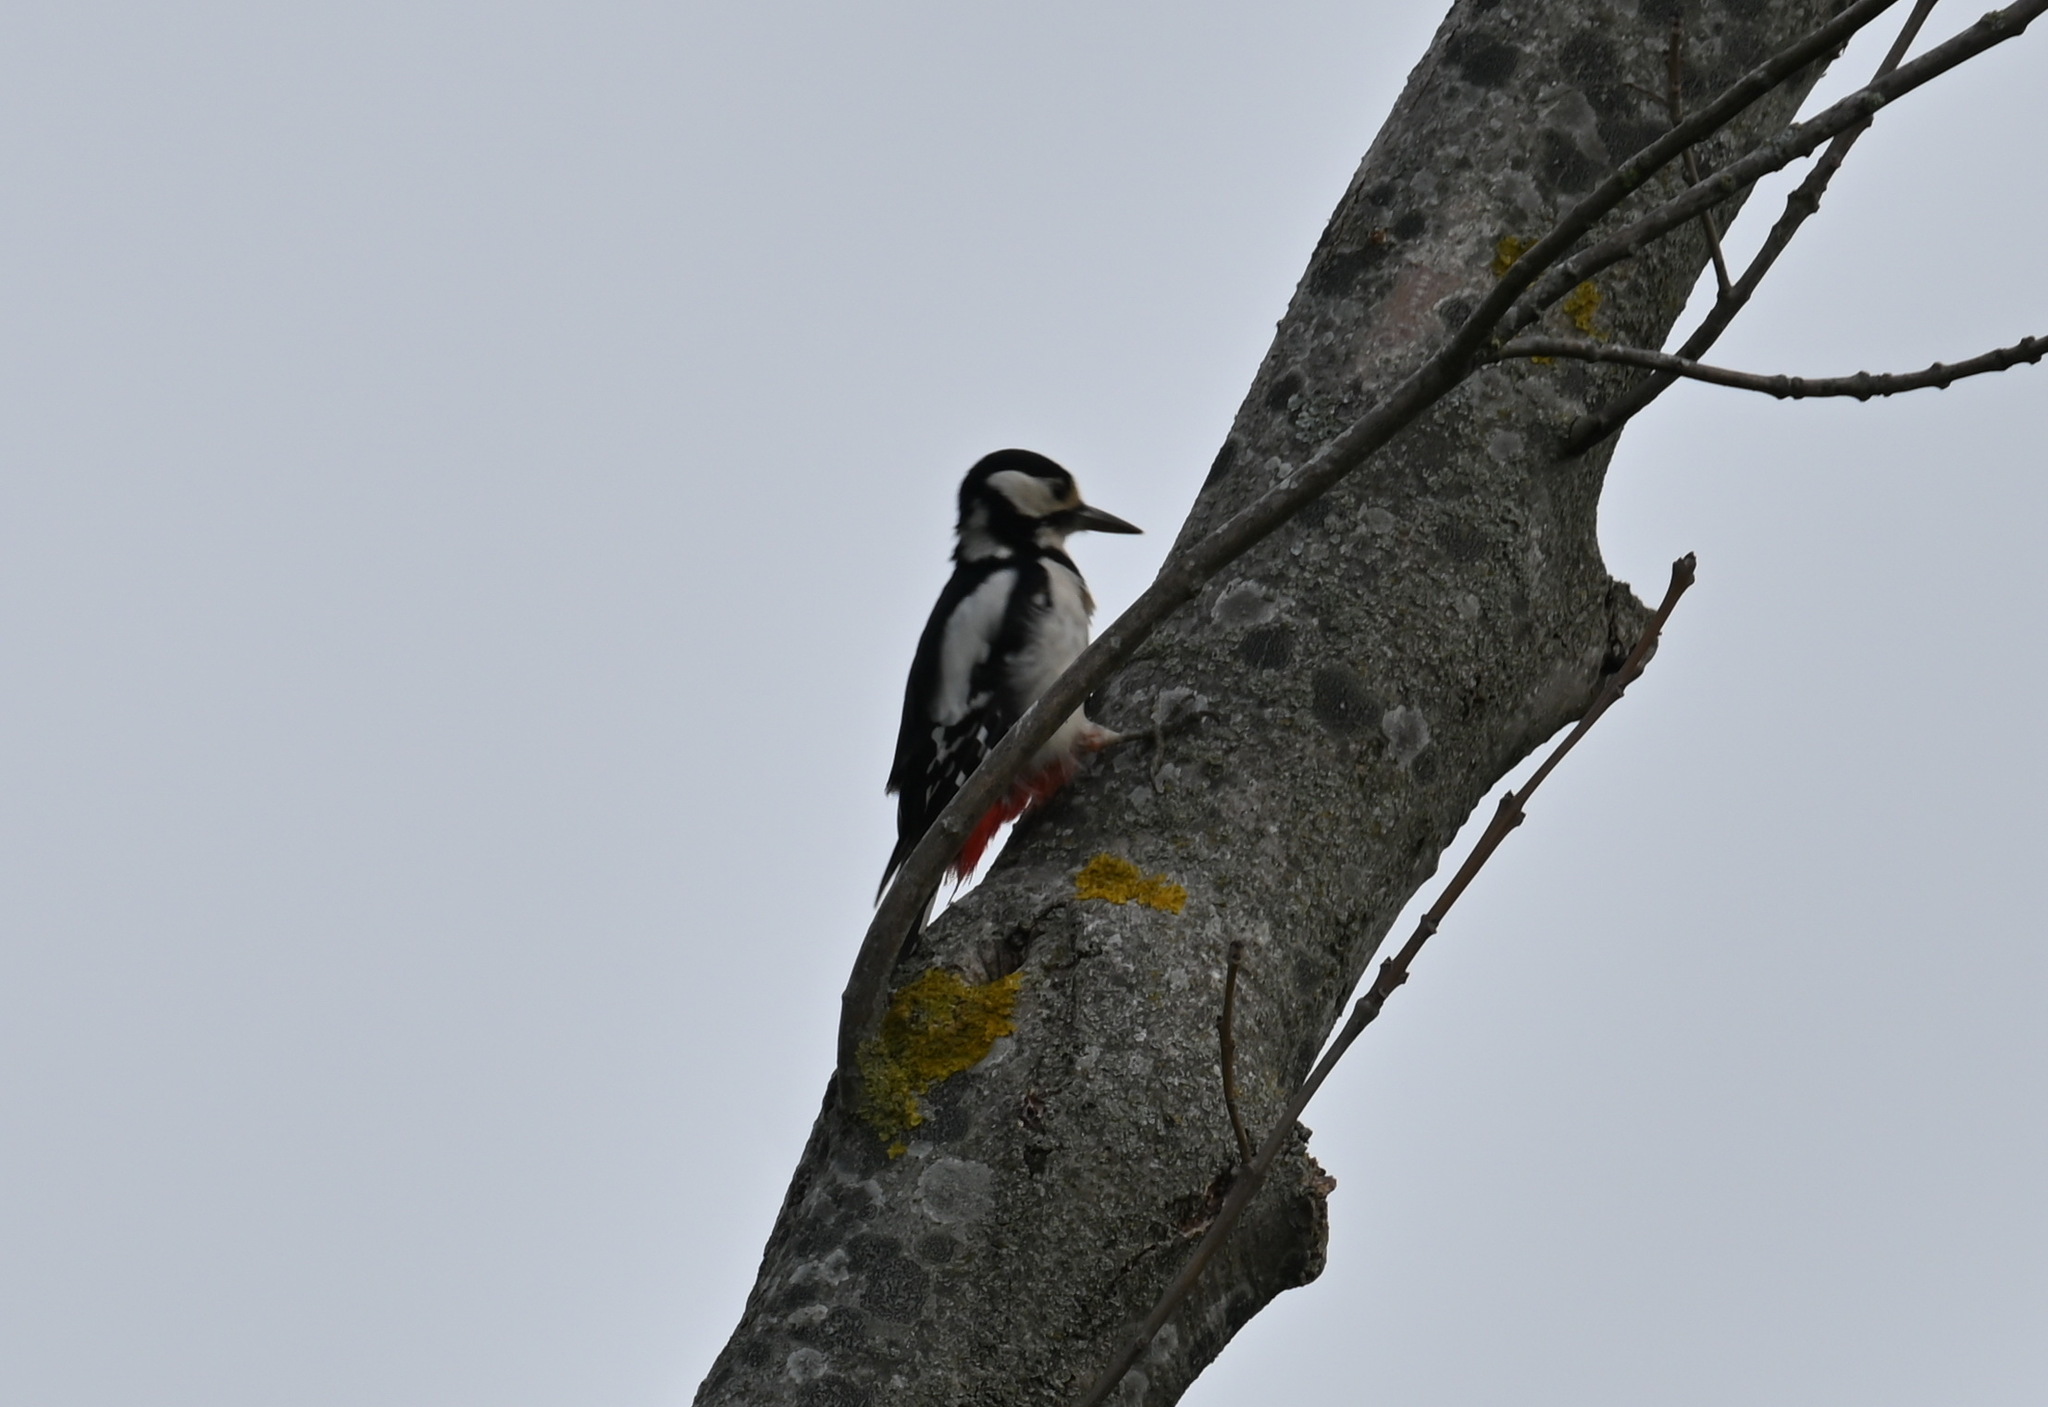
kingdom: Animalia
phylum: Chordata
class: Aves
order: Piciformes
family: Picidae
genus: Dendrocopos
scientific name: Dendrocopos major
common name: Great spotted woodpecker
